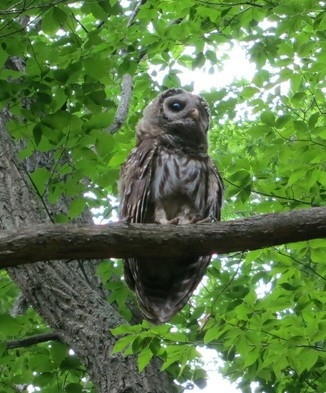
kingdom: Animalia
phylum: Chordata
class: Aves
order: Strigiformes
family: Strigidae
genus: Strix
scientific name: Strix varia
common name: Barred owl
